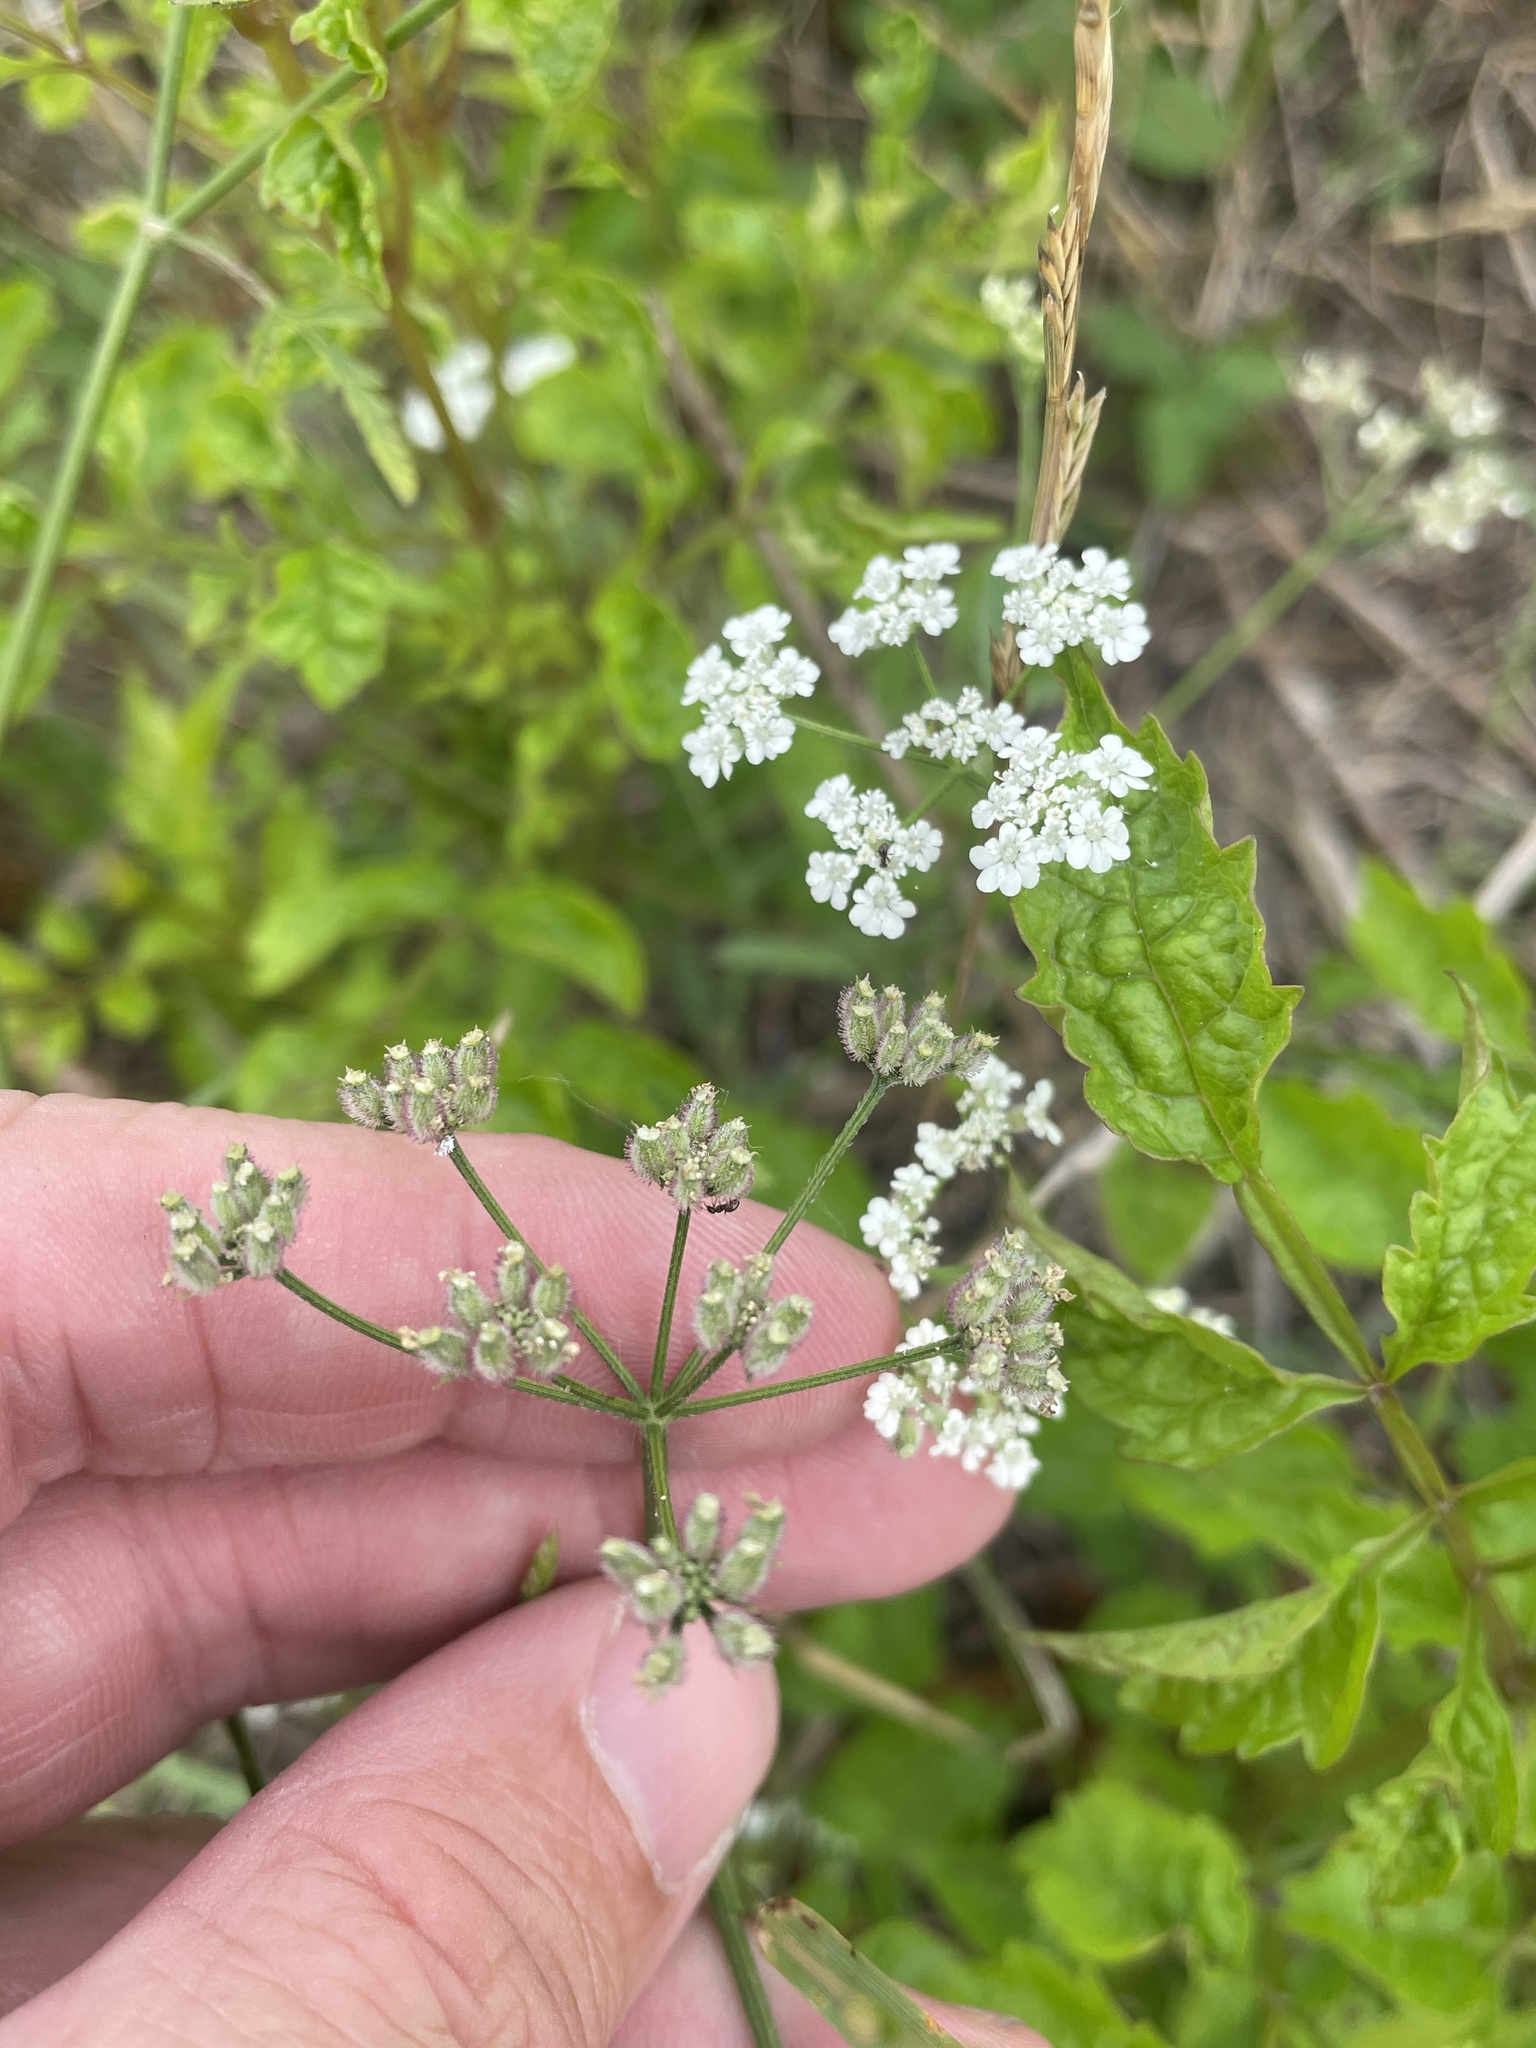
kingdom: Plantae
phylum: Tracheophyta
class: Magnoliopsida
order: Apiales
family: Apiaceae
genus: Torilis
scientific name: Torilis arvensis
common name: Spreading hedge-parsley
